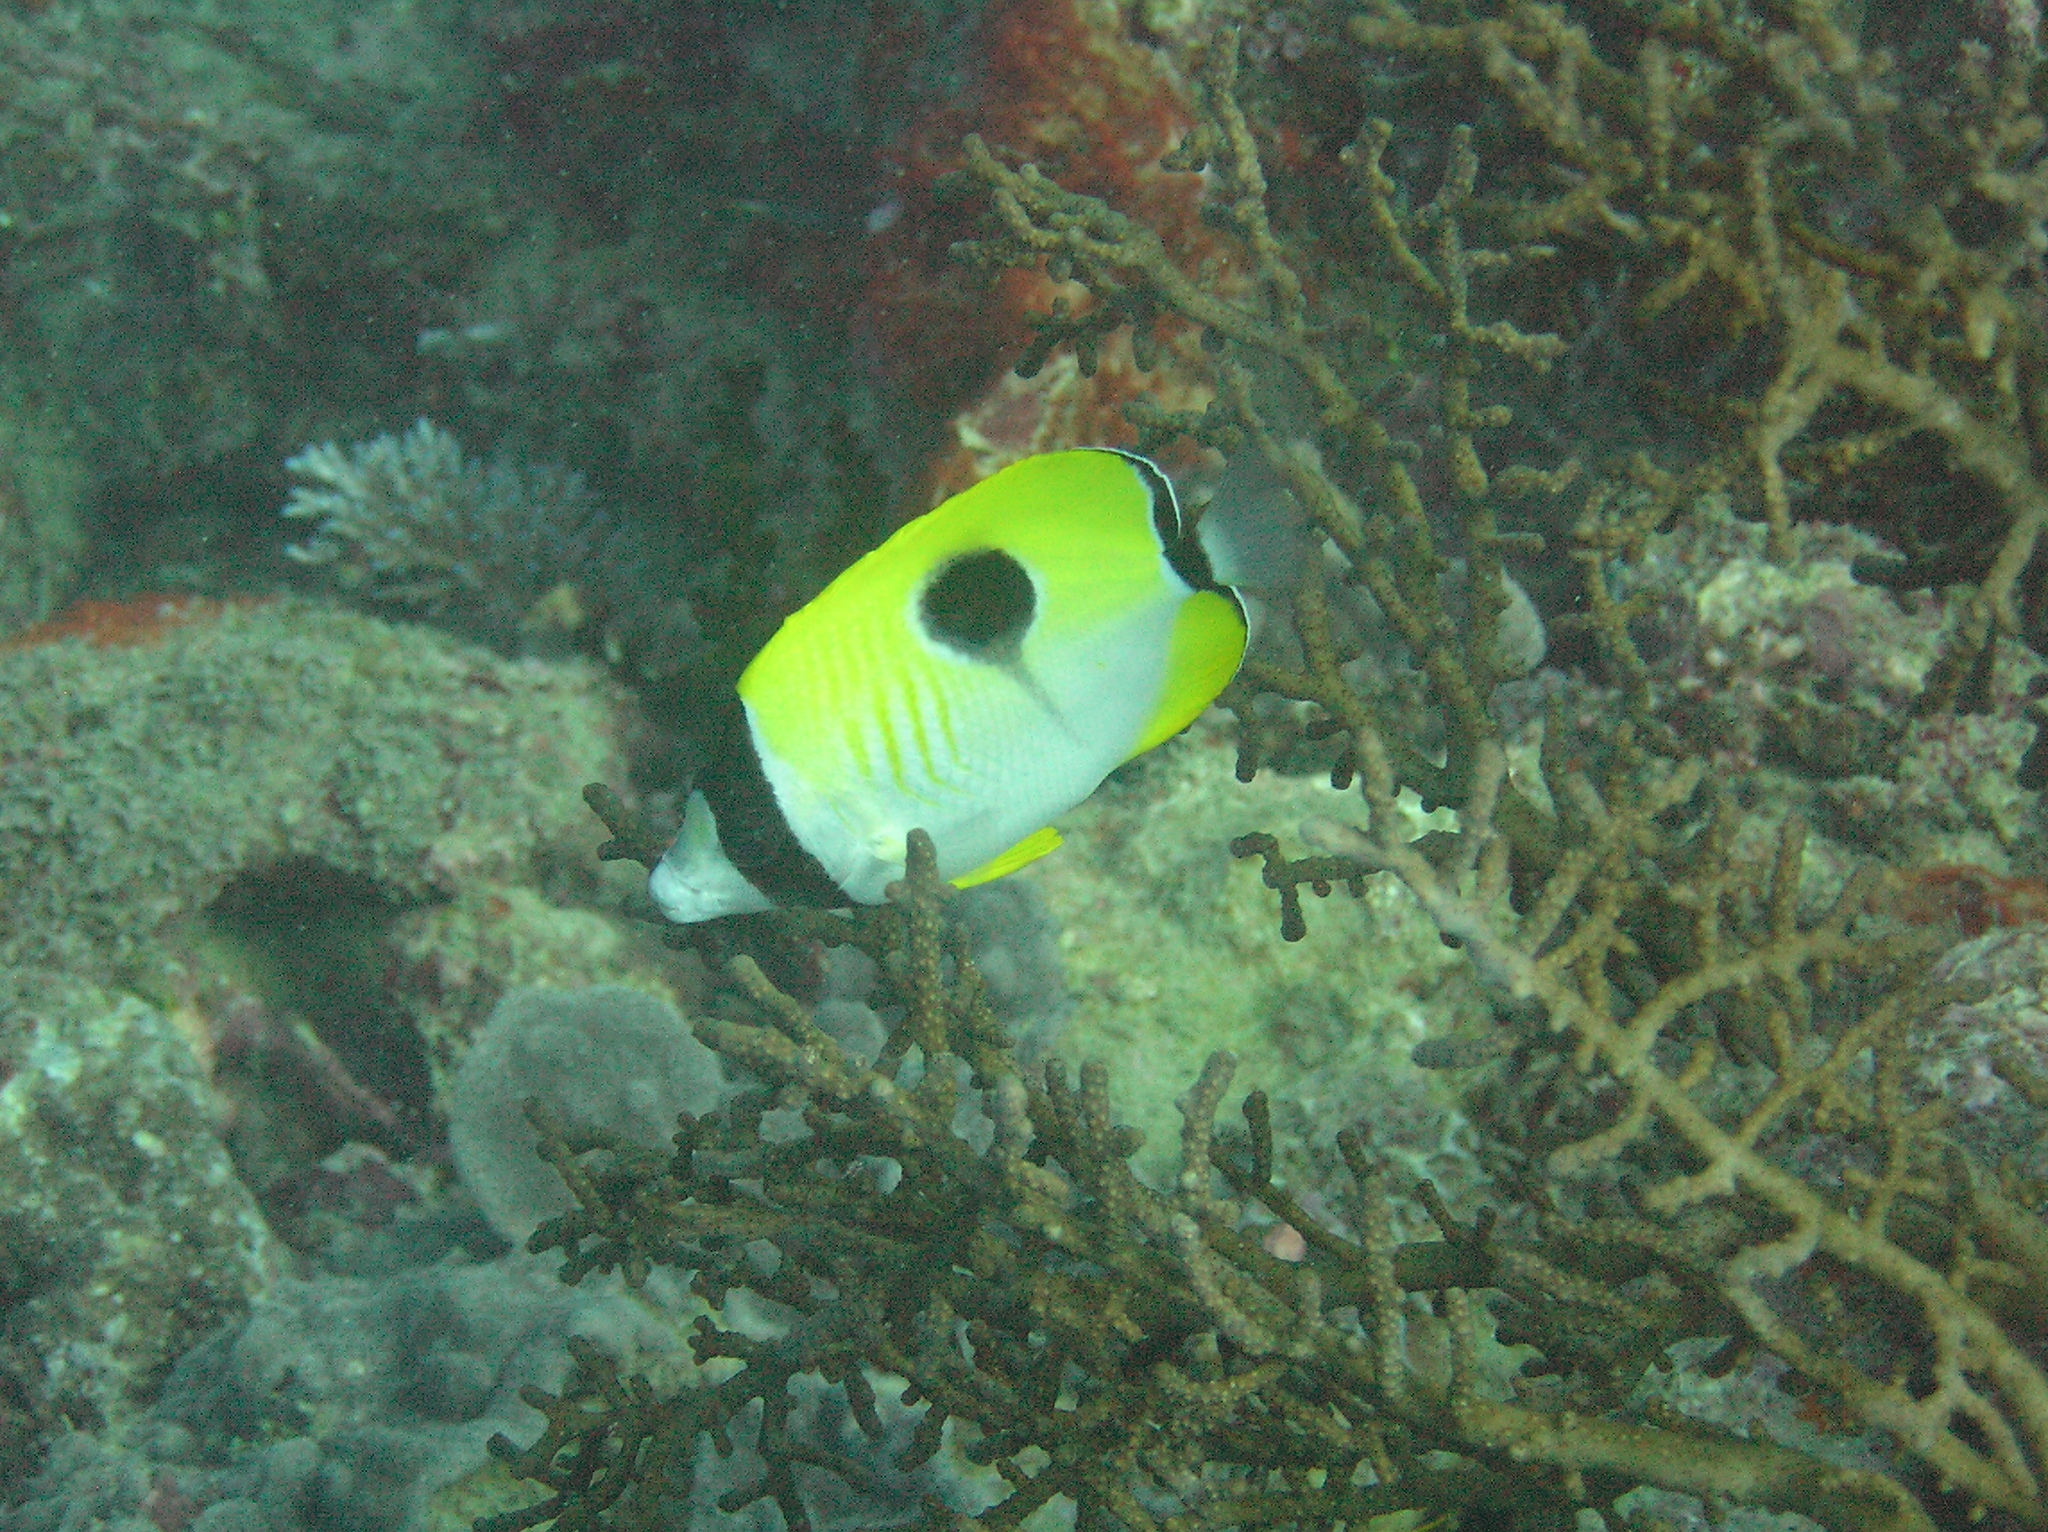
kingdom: Animalia
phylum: Chordata
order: Perciformes
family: Chaetodontidae
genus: Chaetodon
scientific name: Chaetodon unimaculatus
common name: Teardrop butterflyfish
